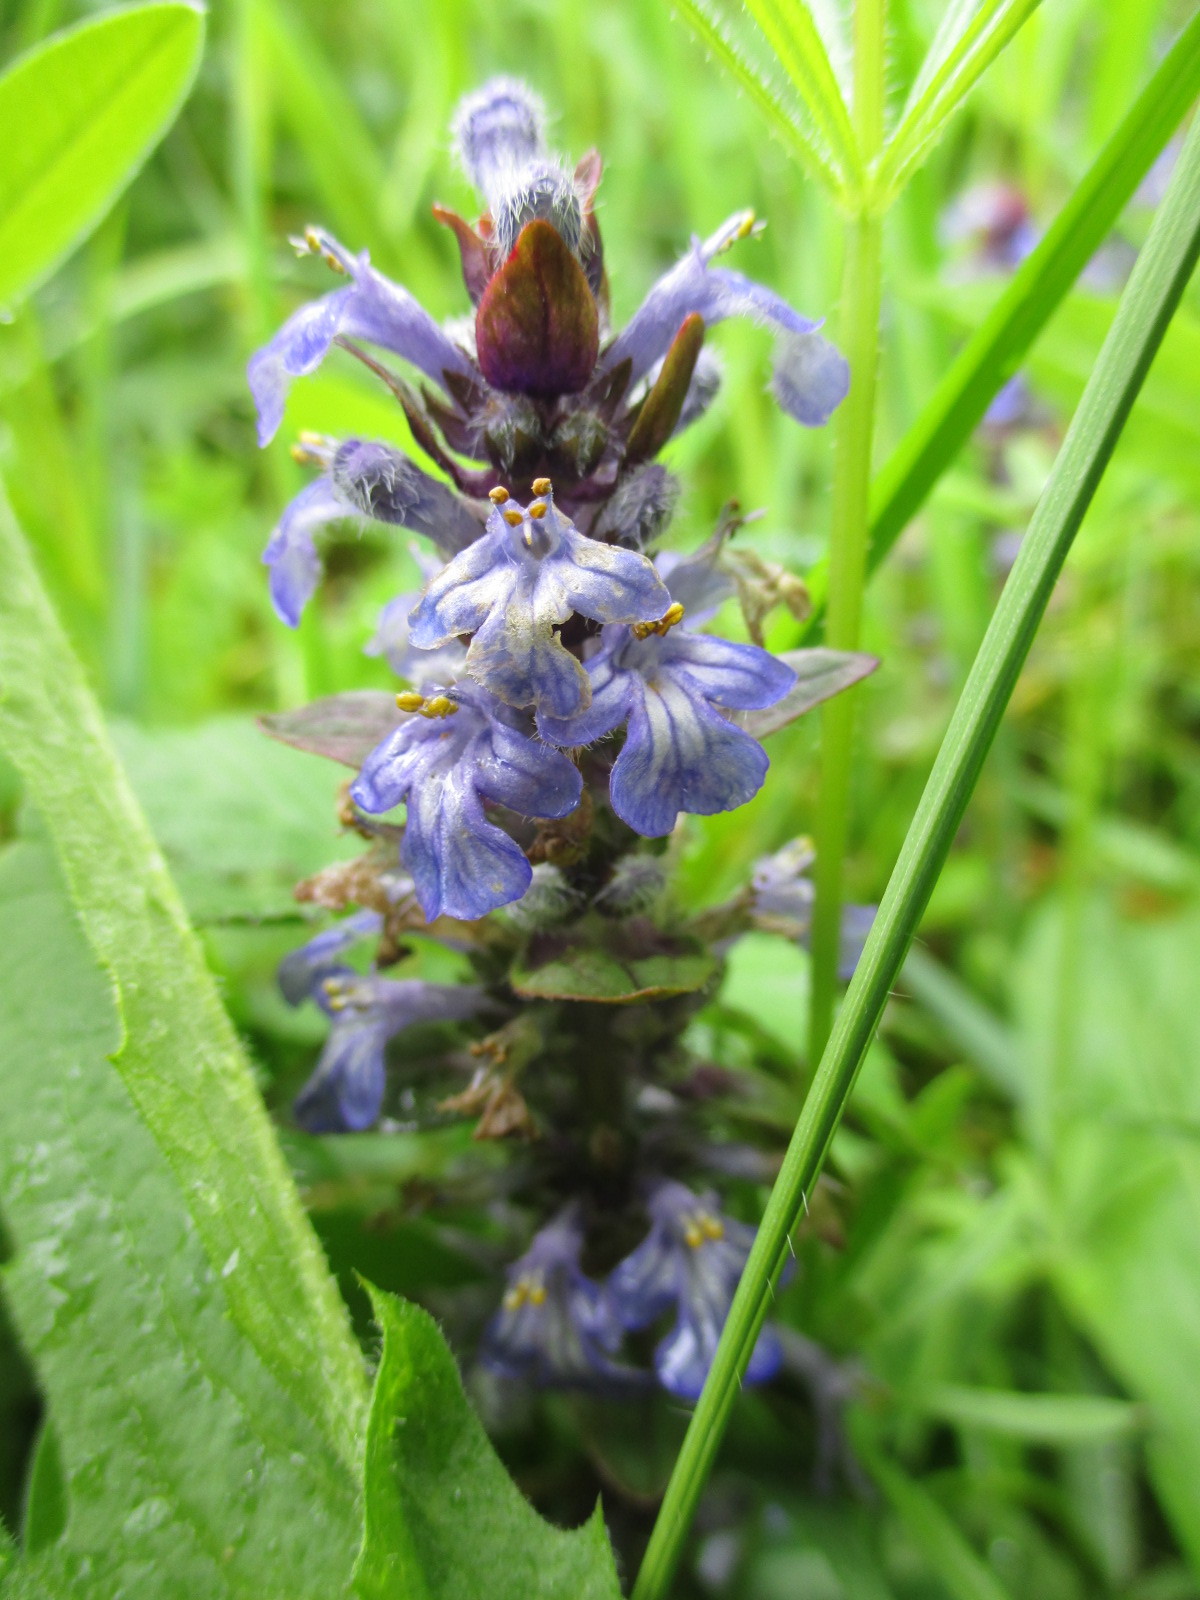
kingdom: Plantae
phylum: Tracheophyta
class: Magnoliopsida
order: Lamiales
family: Lamiaceae
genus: Ajuga
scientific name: Ajuga reptans
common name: Bugle
